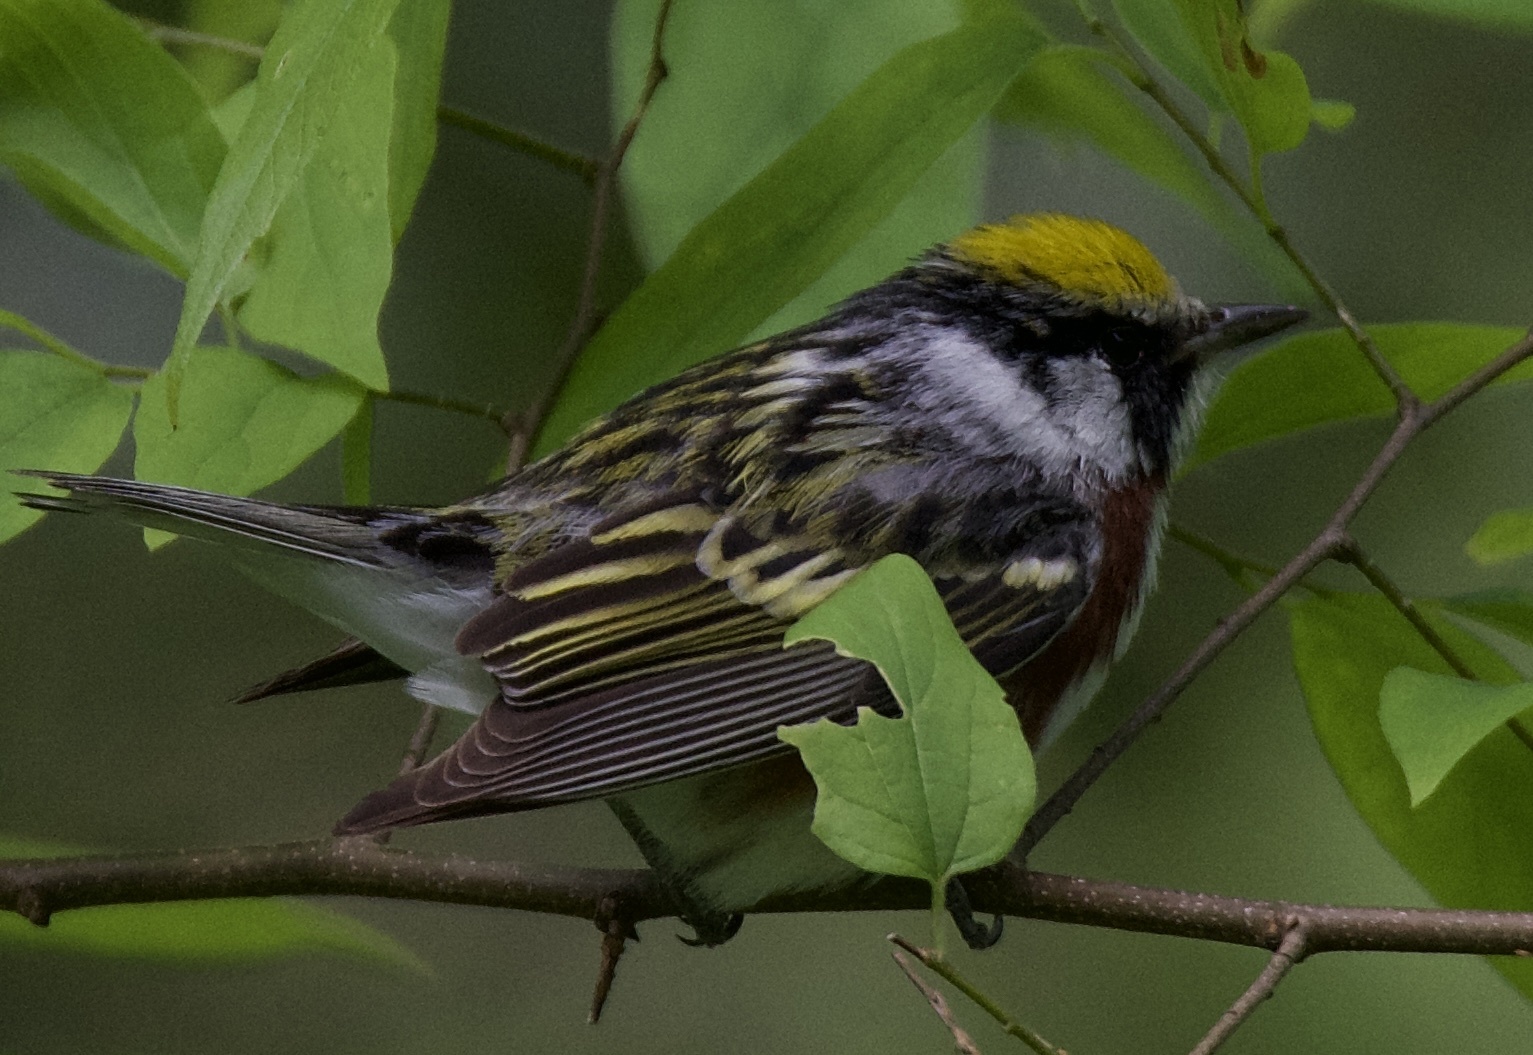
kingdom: Animalia
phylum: Chordata
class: Aves
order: Passeriformes
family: Parulidae
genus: Setophaga
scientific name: Setophaga pensylvanica
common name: Chestnut-sided warbler
